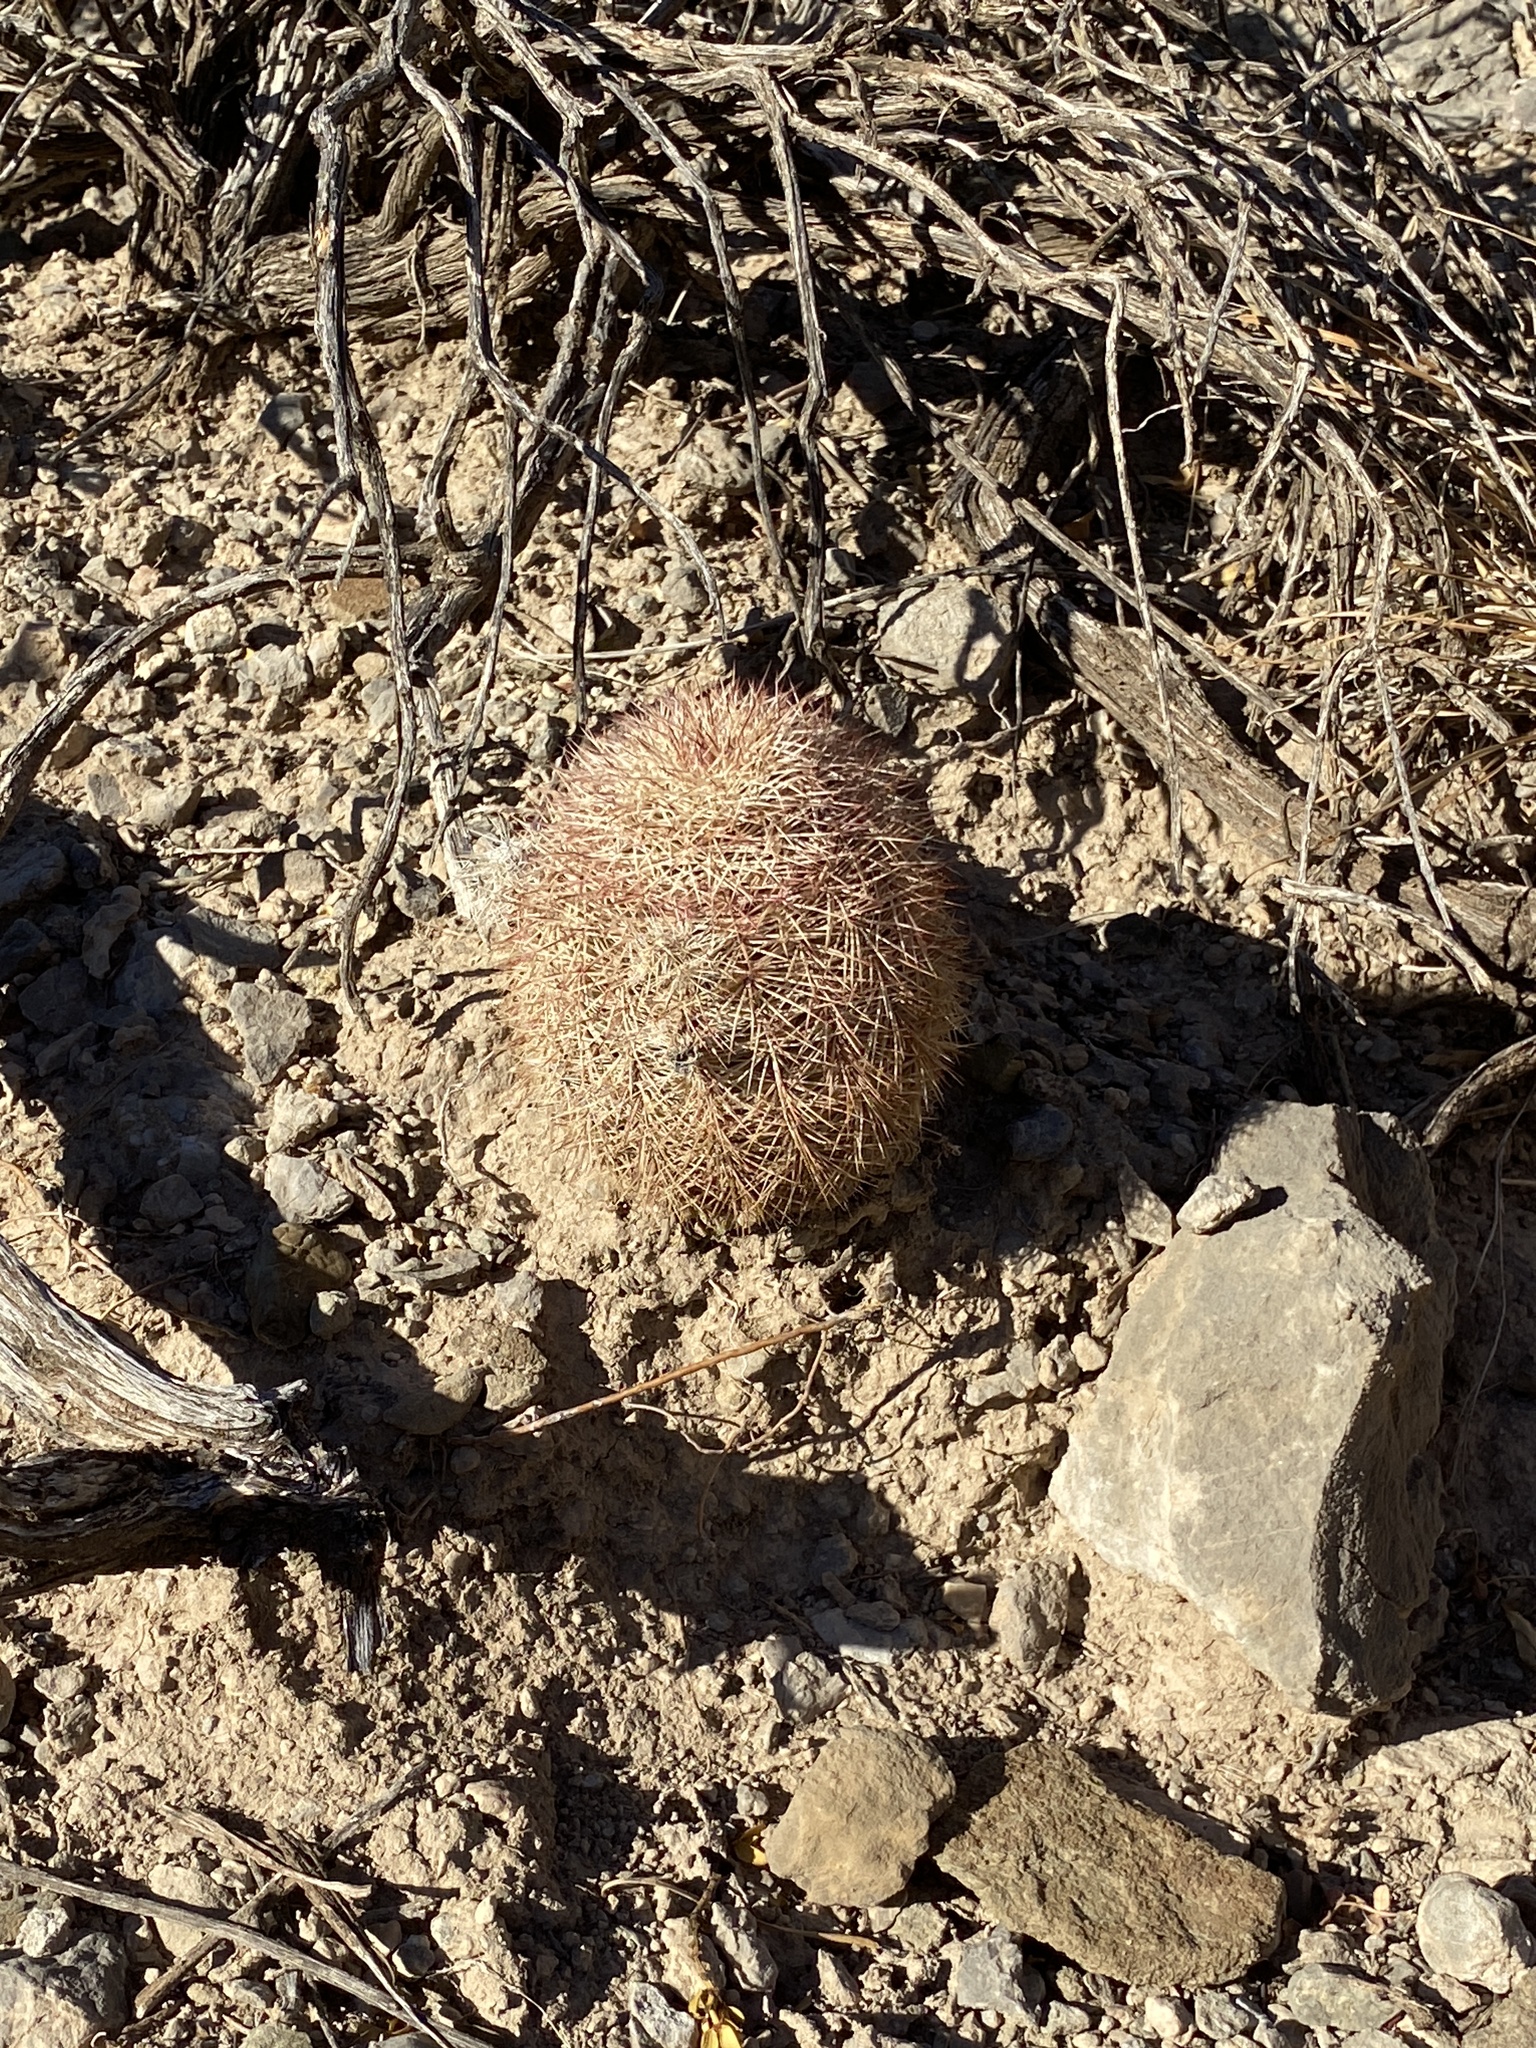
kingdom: Plantae
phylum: Tracheophyta
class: Magnoliopsida
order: Caryophyllales
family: Cactaceae
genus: Echinocereus
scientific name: Echinocereus dasyacanthus
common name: Spiny hedgehog cactus
